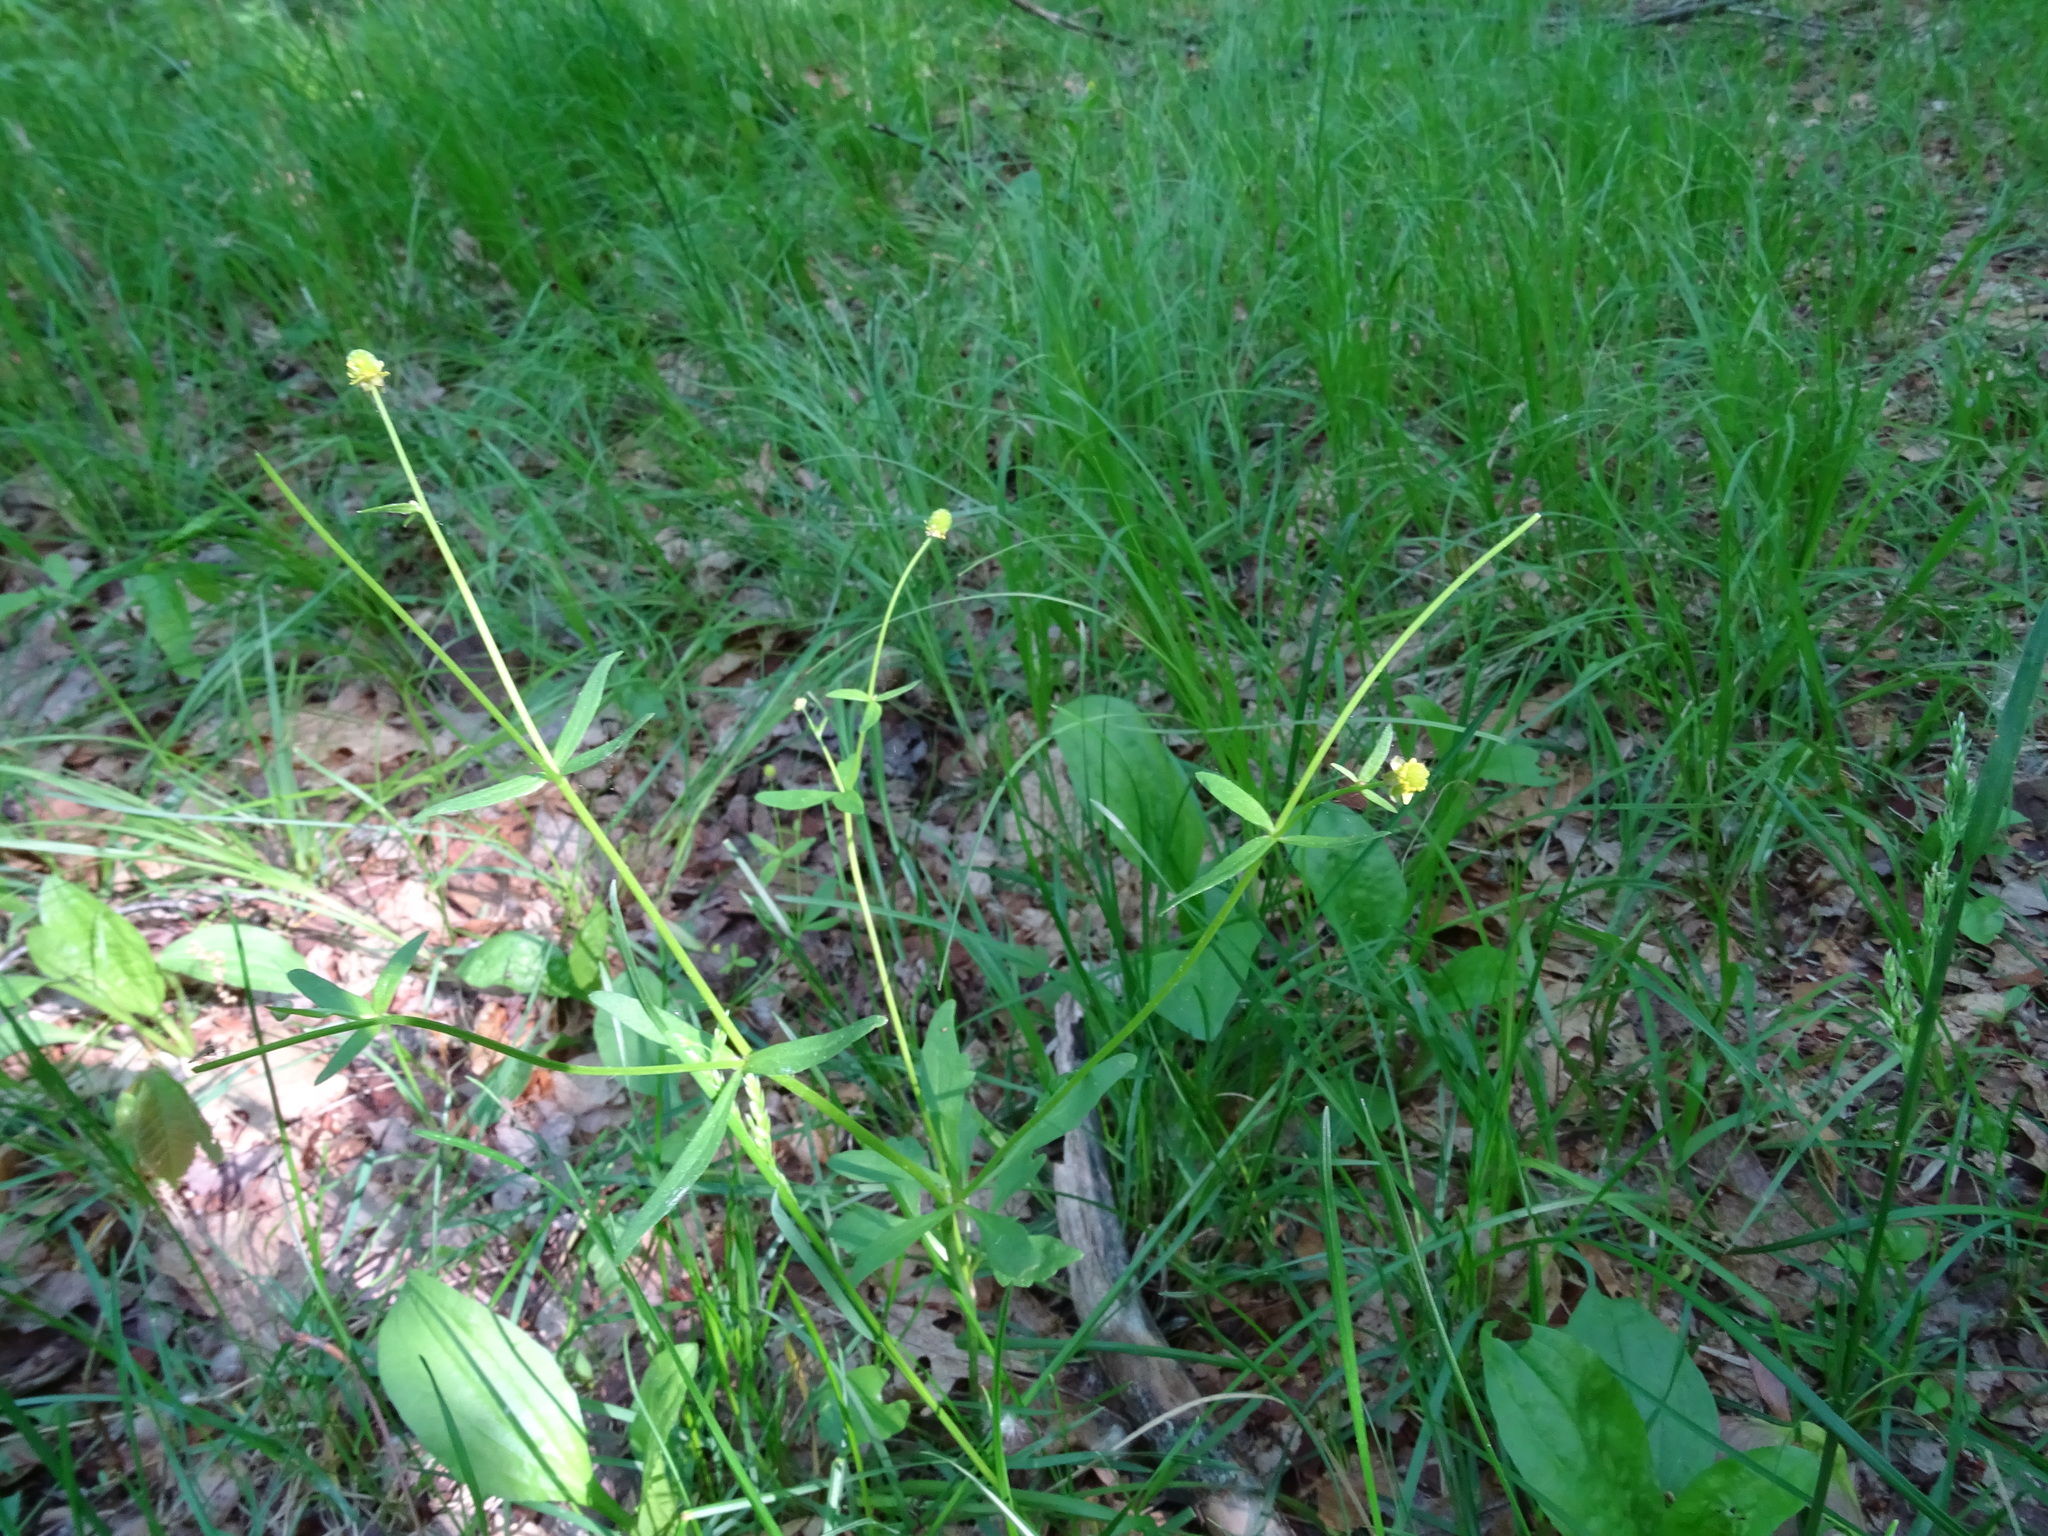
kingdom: Plantae
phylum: Tracheophyta
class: Magnoliopsida
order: Ranunculales
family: Ranunculaceae
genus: Ranunculus
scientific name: Ranunculus abortivus
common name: Early wood buttercup
